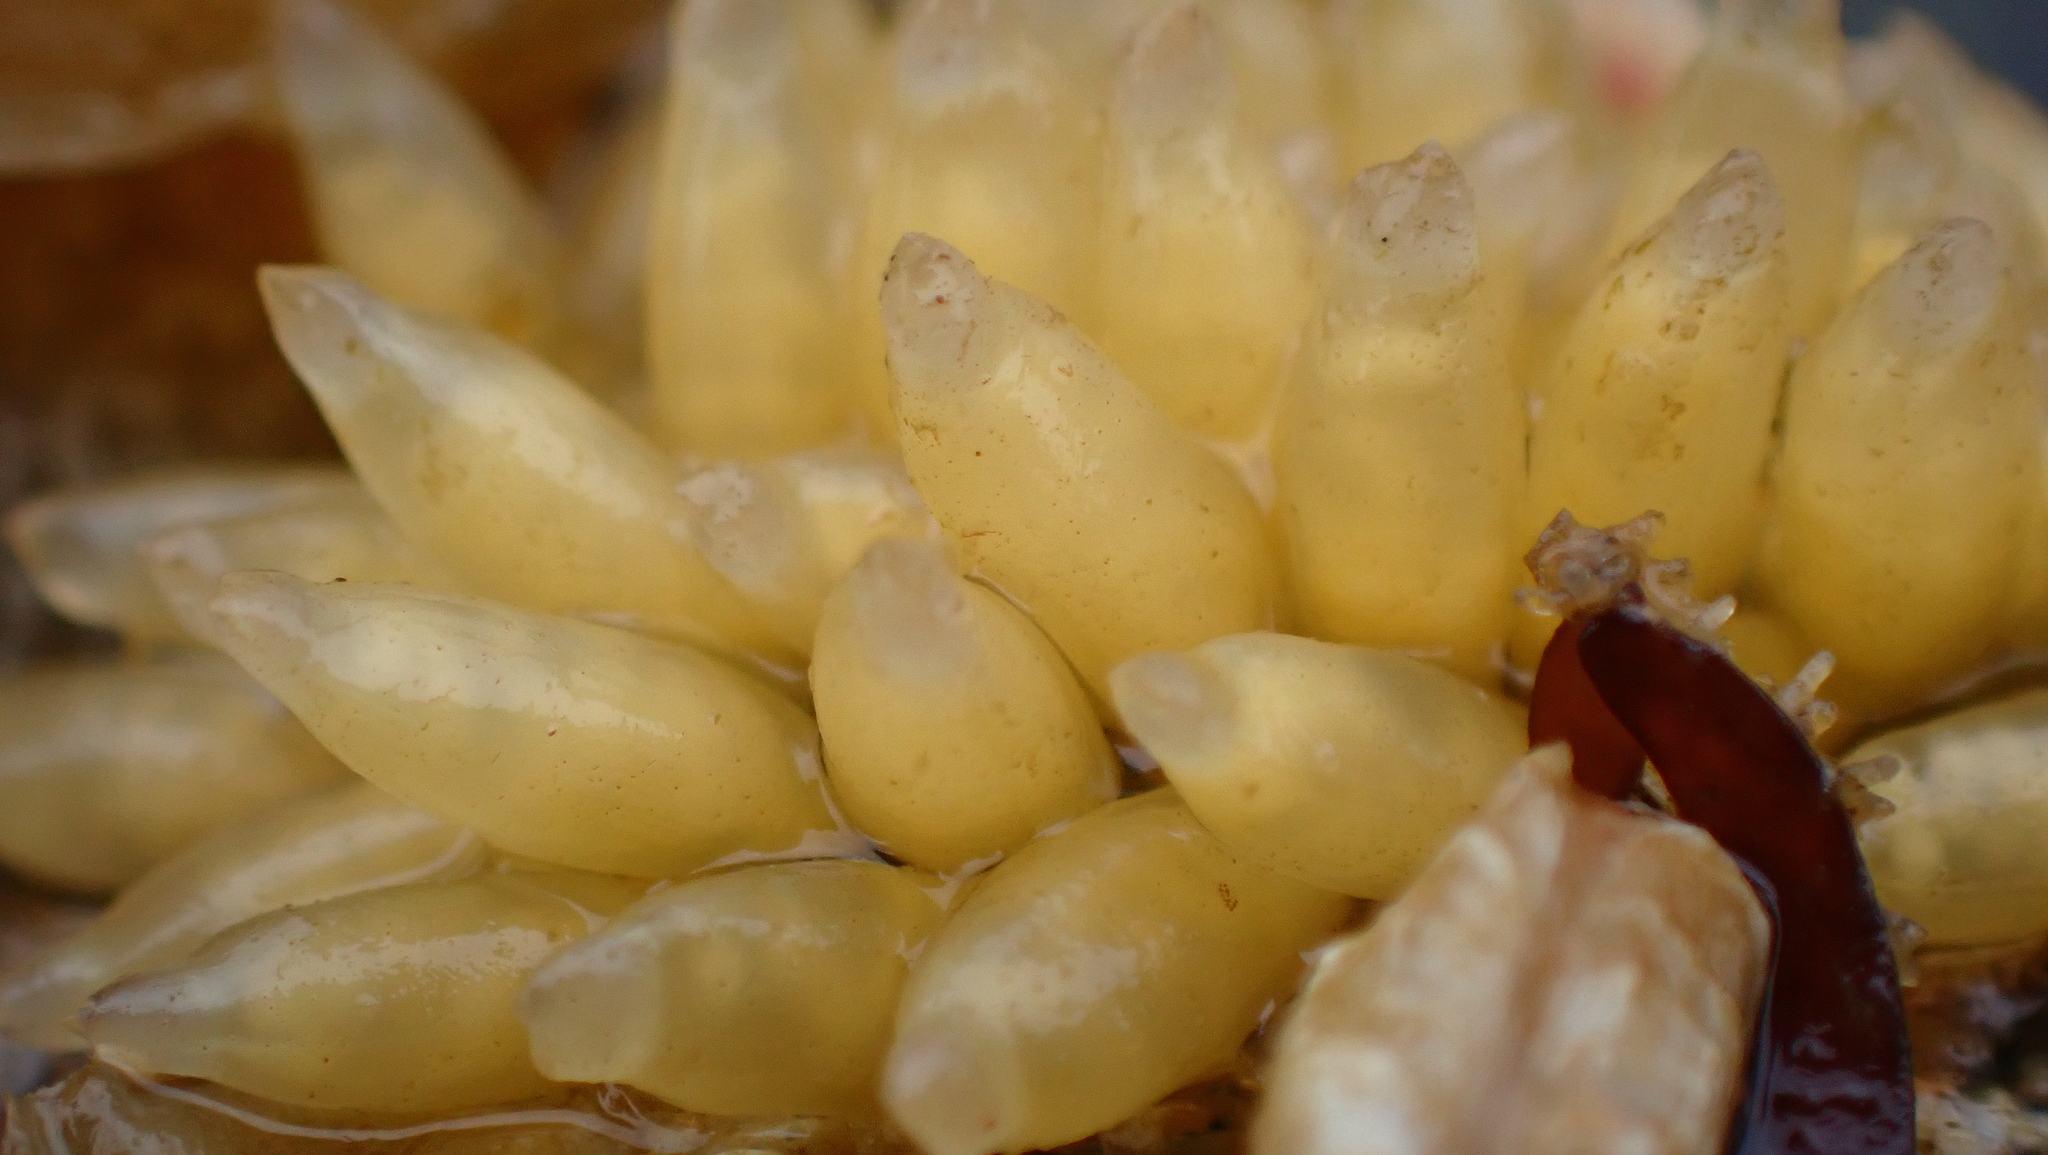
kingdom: Animalia
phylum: Mollusca
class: Gastropoda
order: Neogastropoda
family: Muricidae
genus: Nucella
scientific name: Nucella lamellosa
